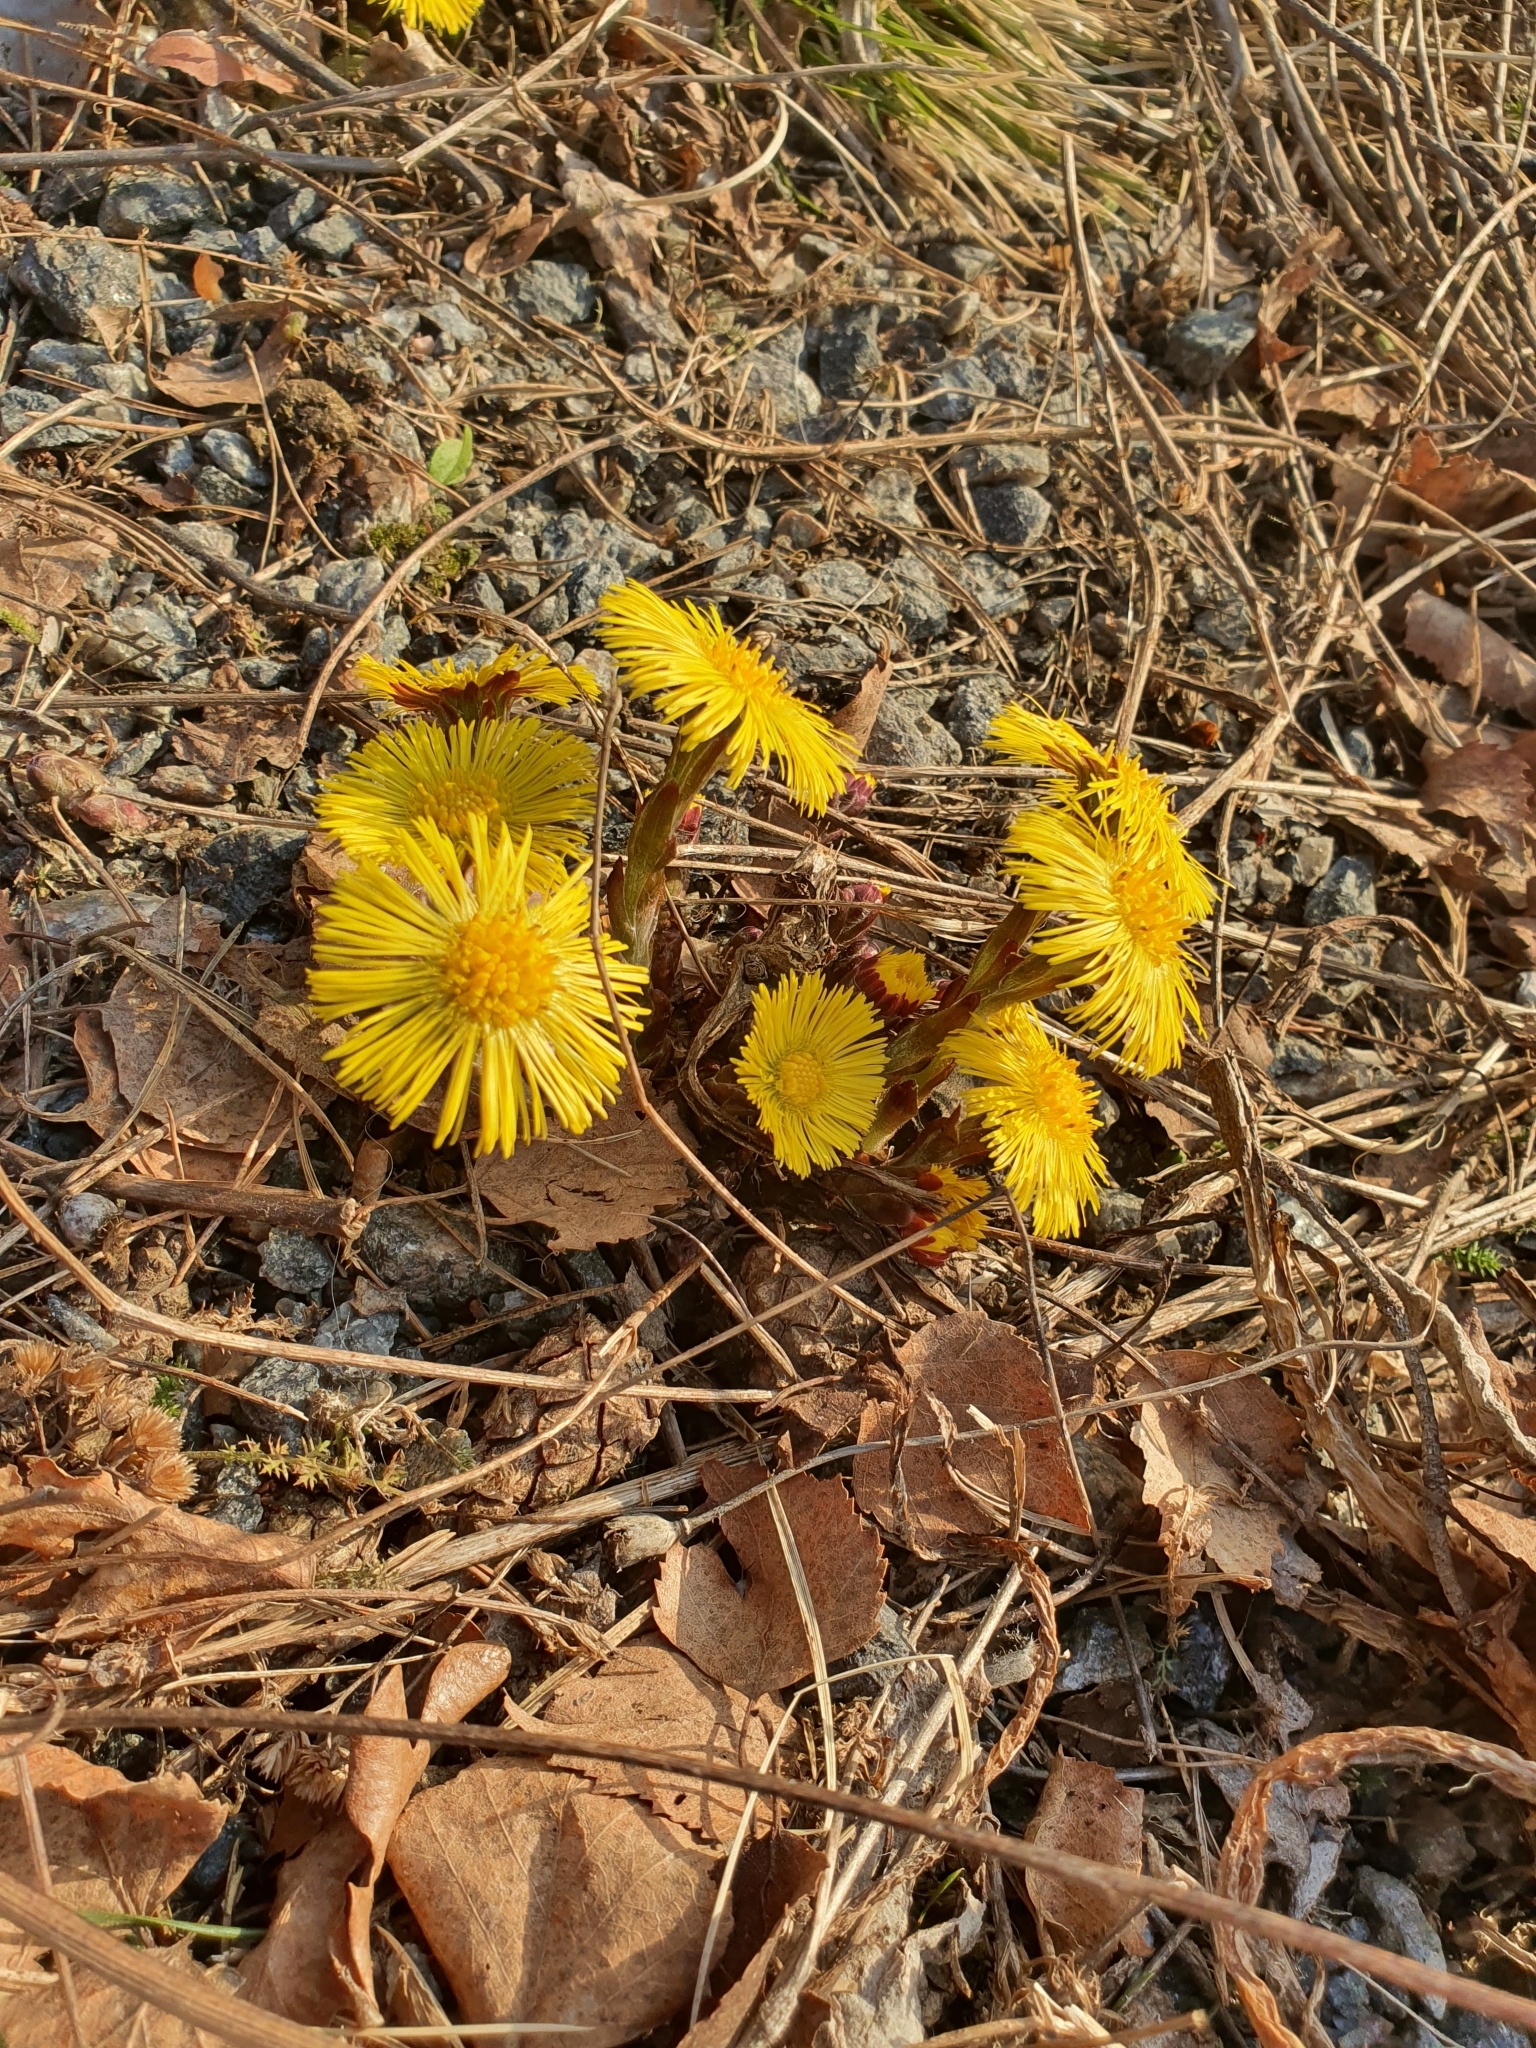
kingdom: Plantae
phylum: Tracheophyta
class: Magnoliopsida
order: Asterales
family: Asteraceae
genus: Tussilago
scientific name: Tussilago farfara
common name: Coltsfoot
